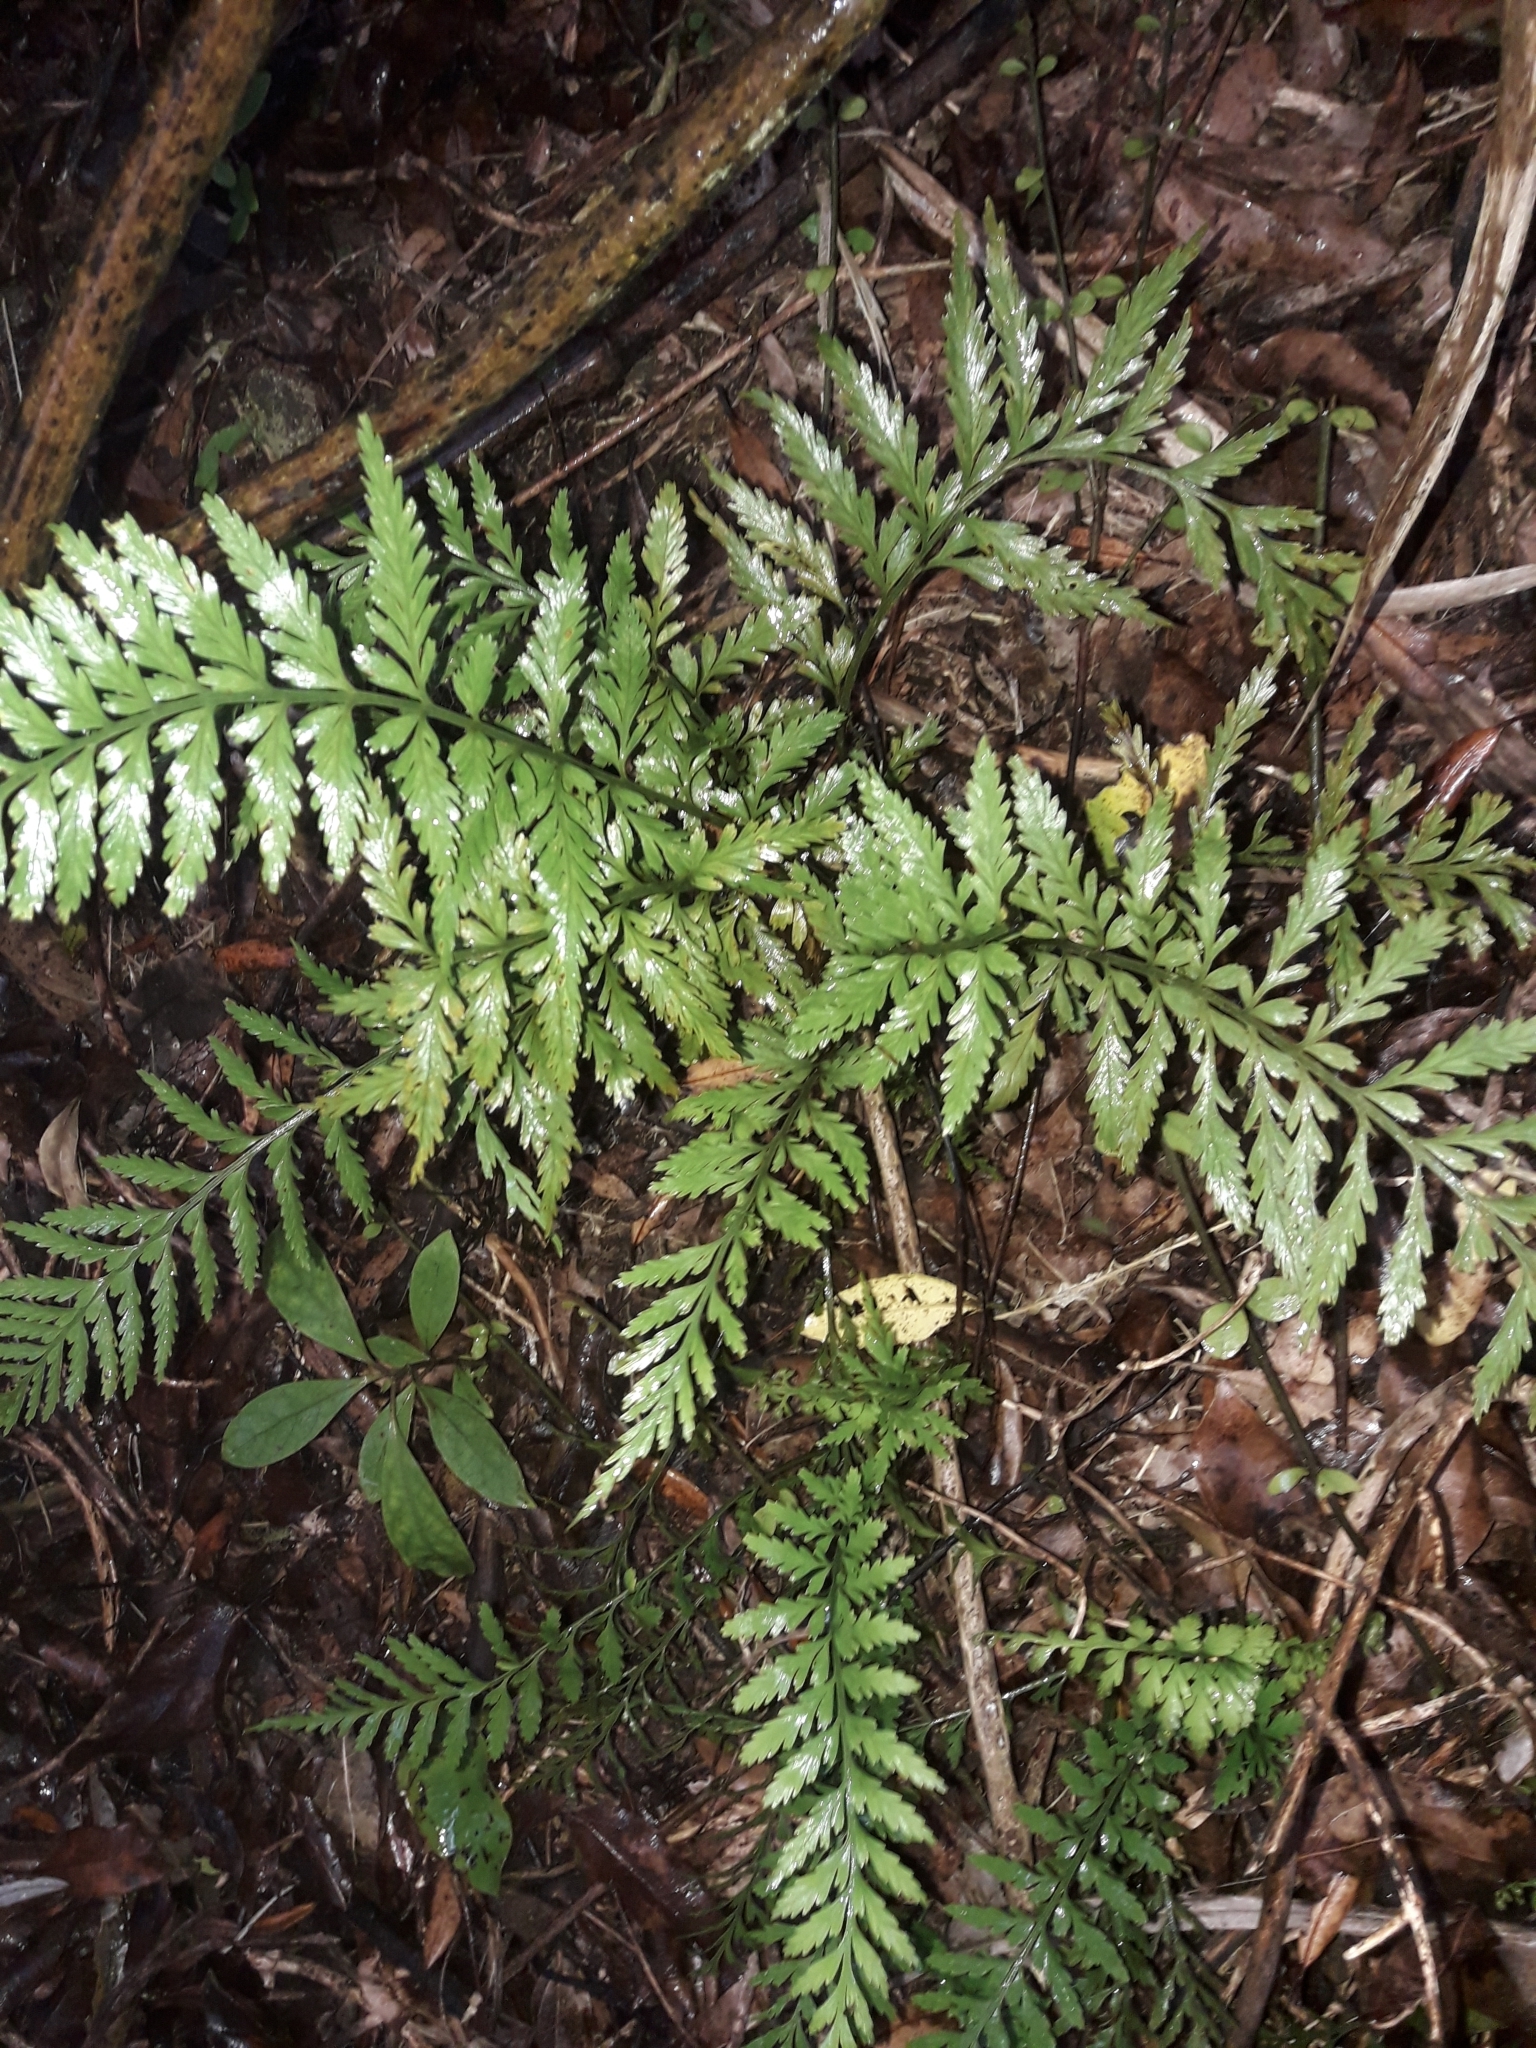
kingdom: Plantae
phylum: Tracheophyta
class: Polypodiopsida
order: Polypodiales
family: Aspleniaceae
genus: Asplenium
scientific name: Asplenium lamprophyllum
